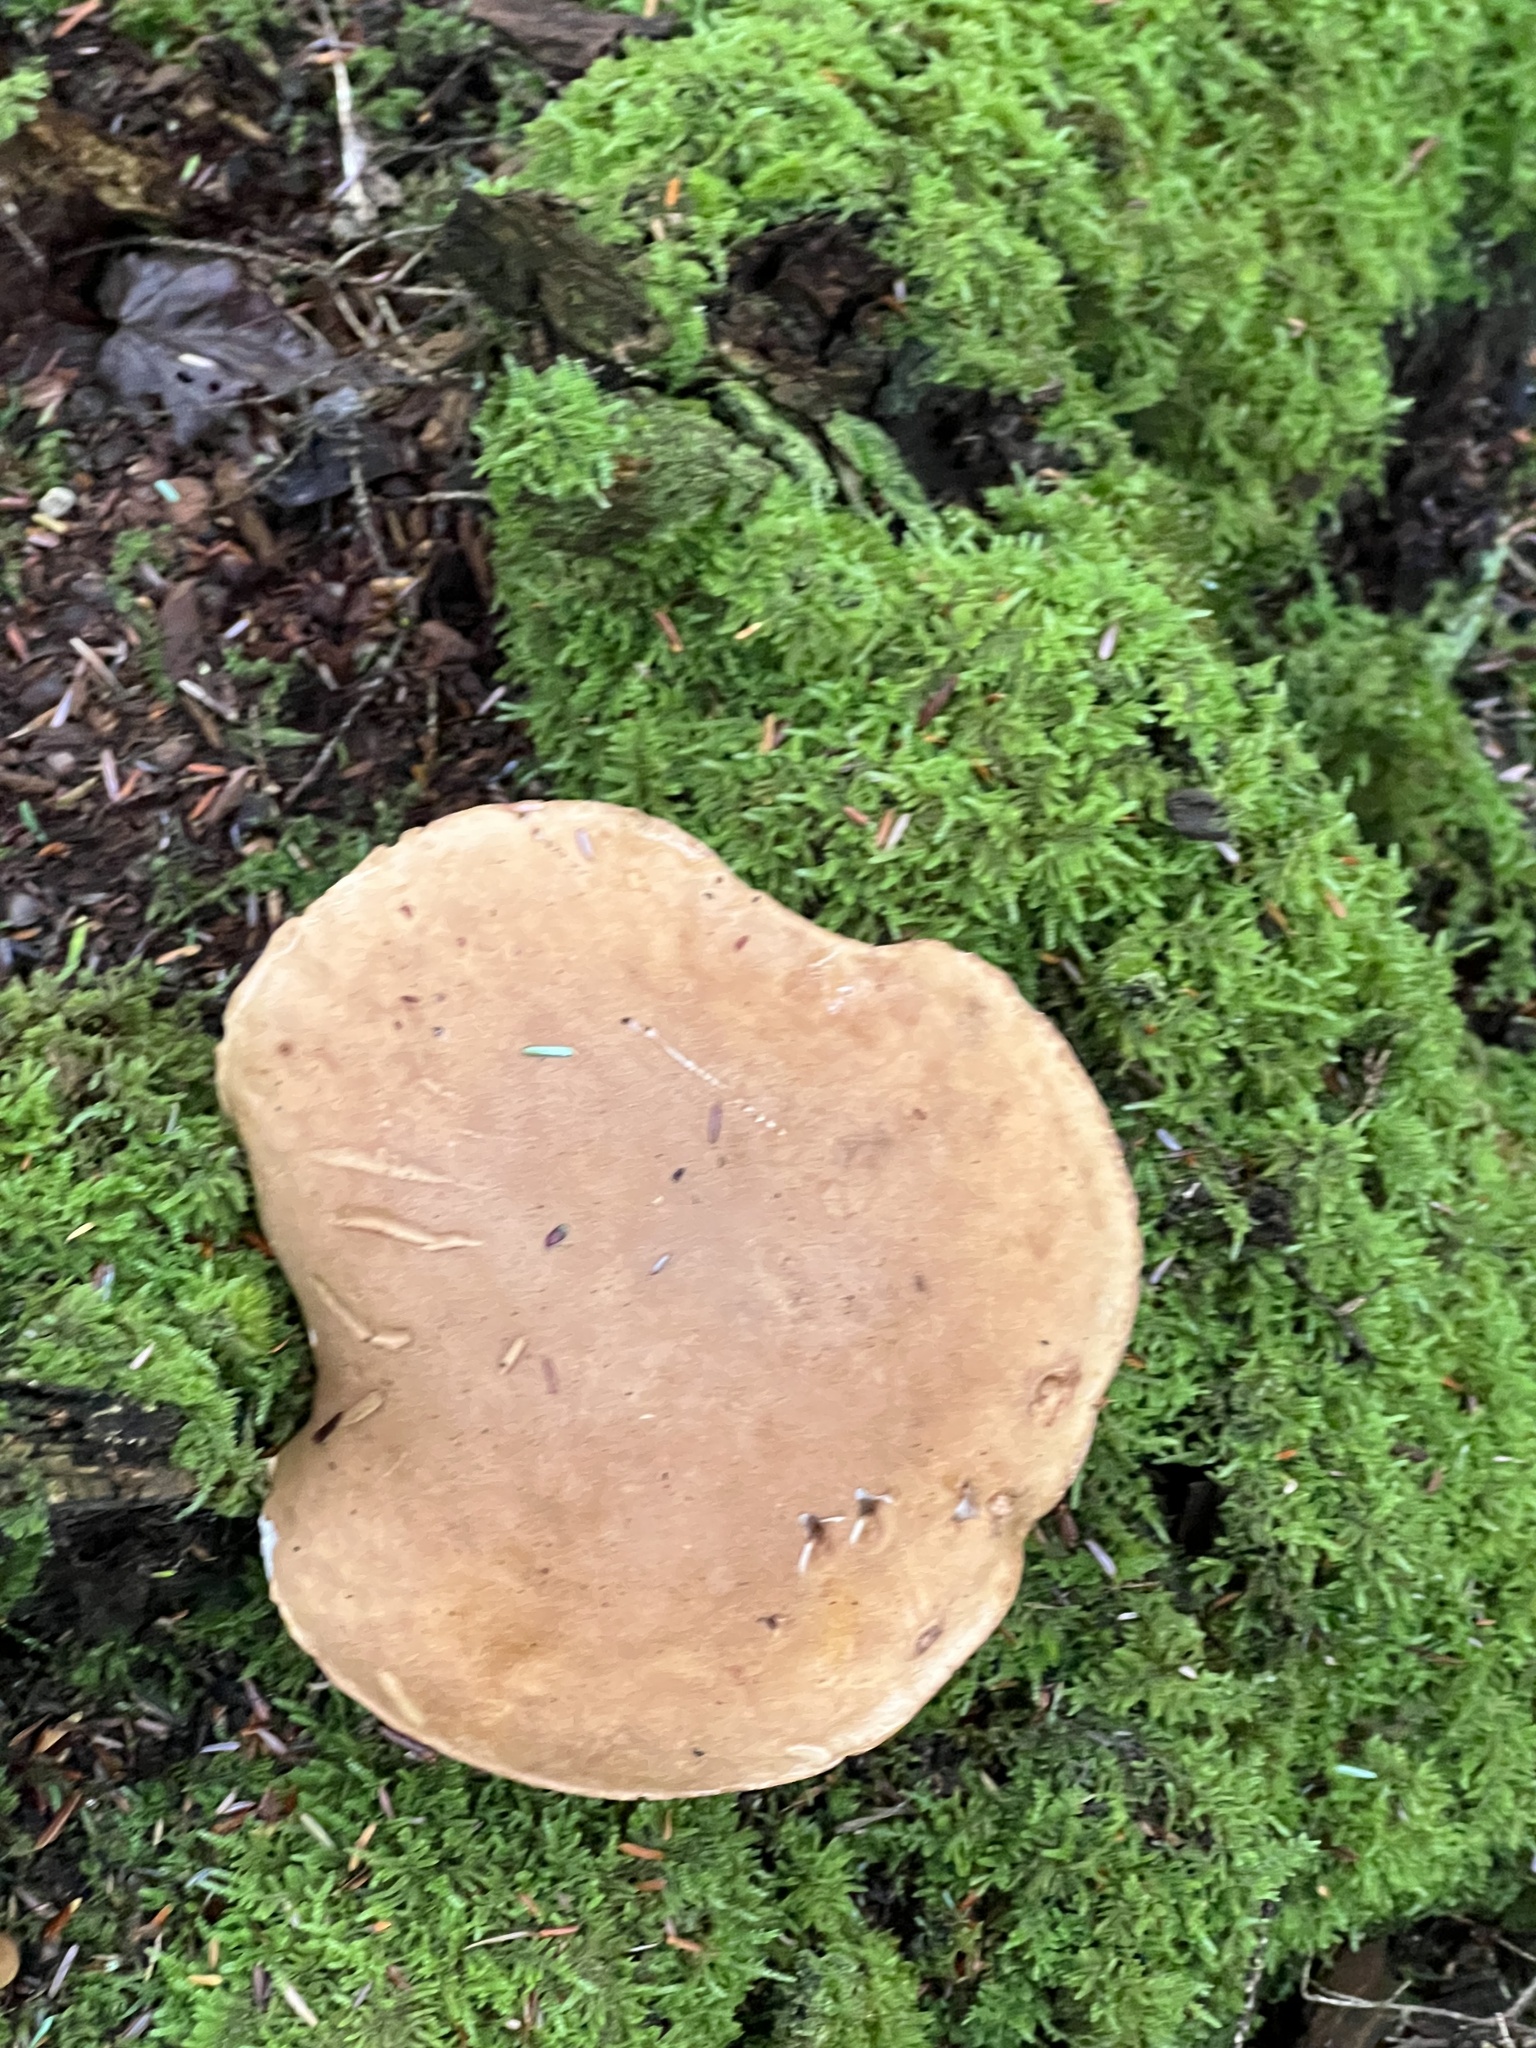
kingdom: Fungi
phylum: Basidiomycota
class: Agaricomycetes
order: Boletales
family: Boletaceae
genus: Tylopilus
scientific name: Tylopilus felleus
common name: Bitter bolete
